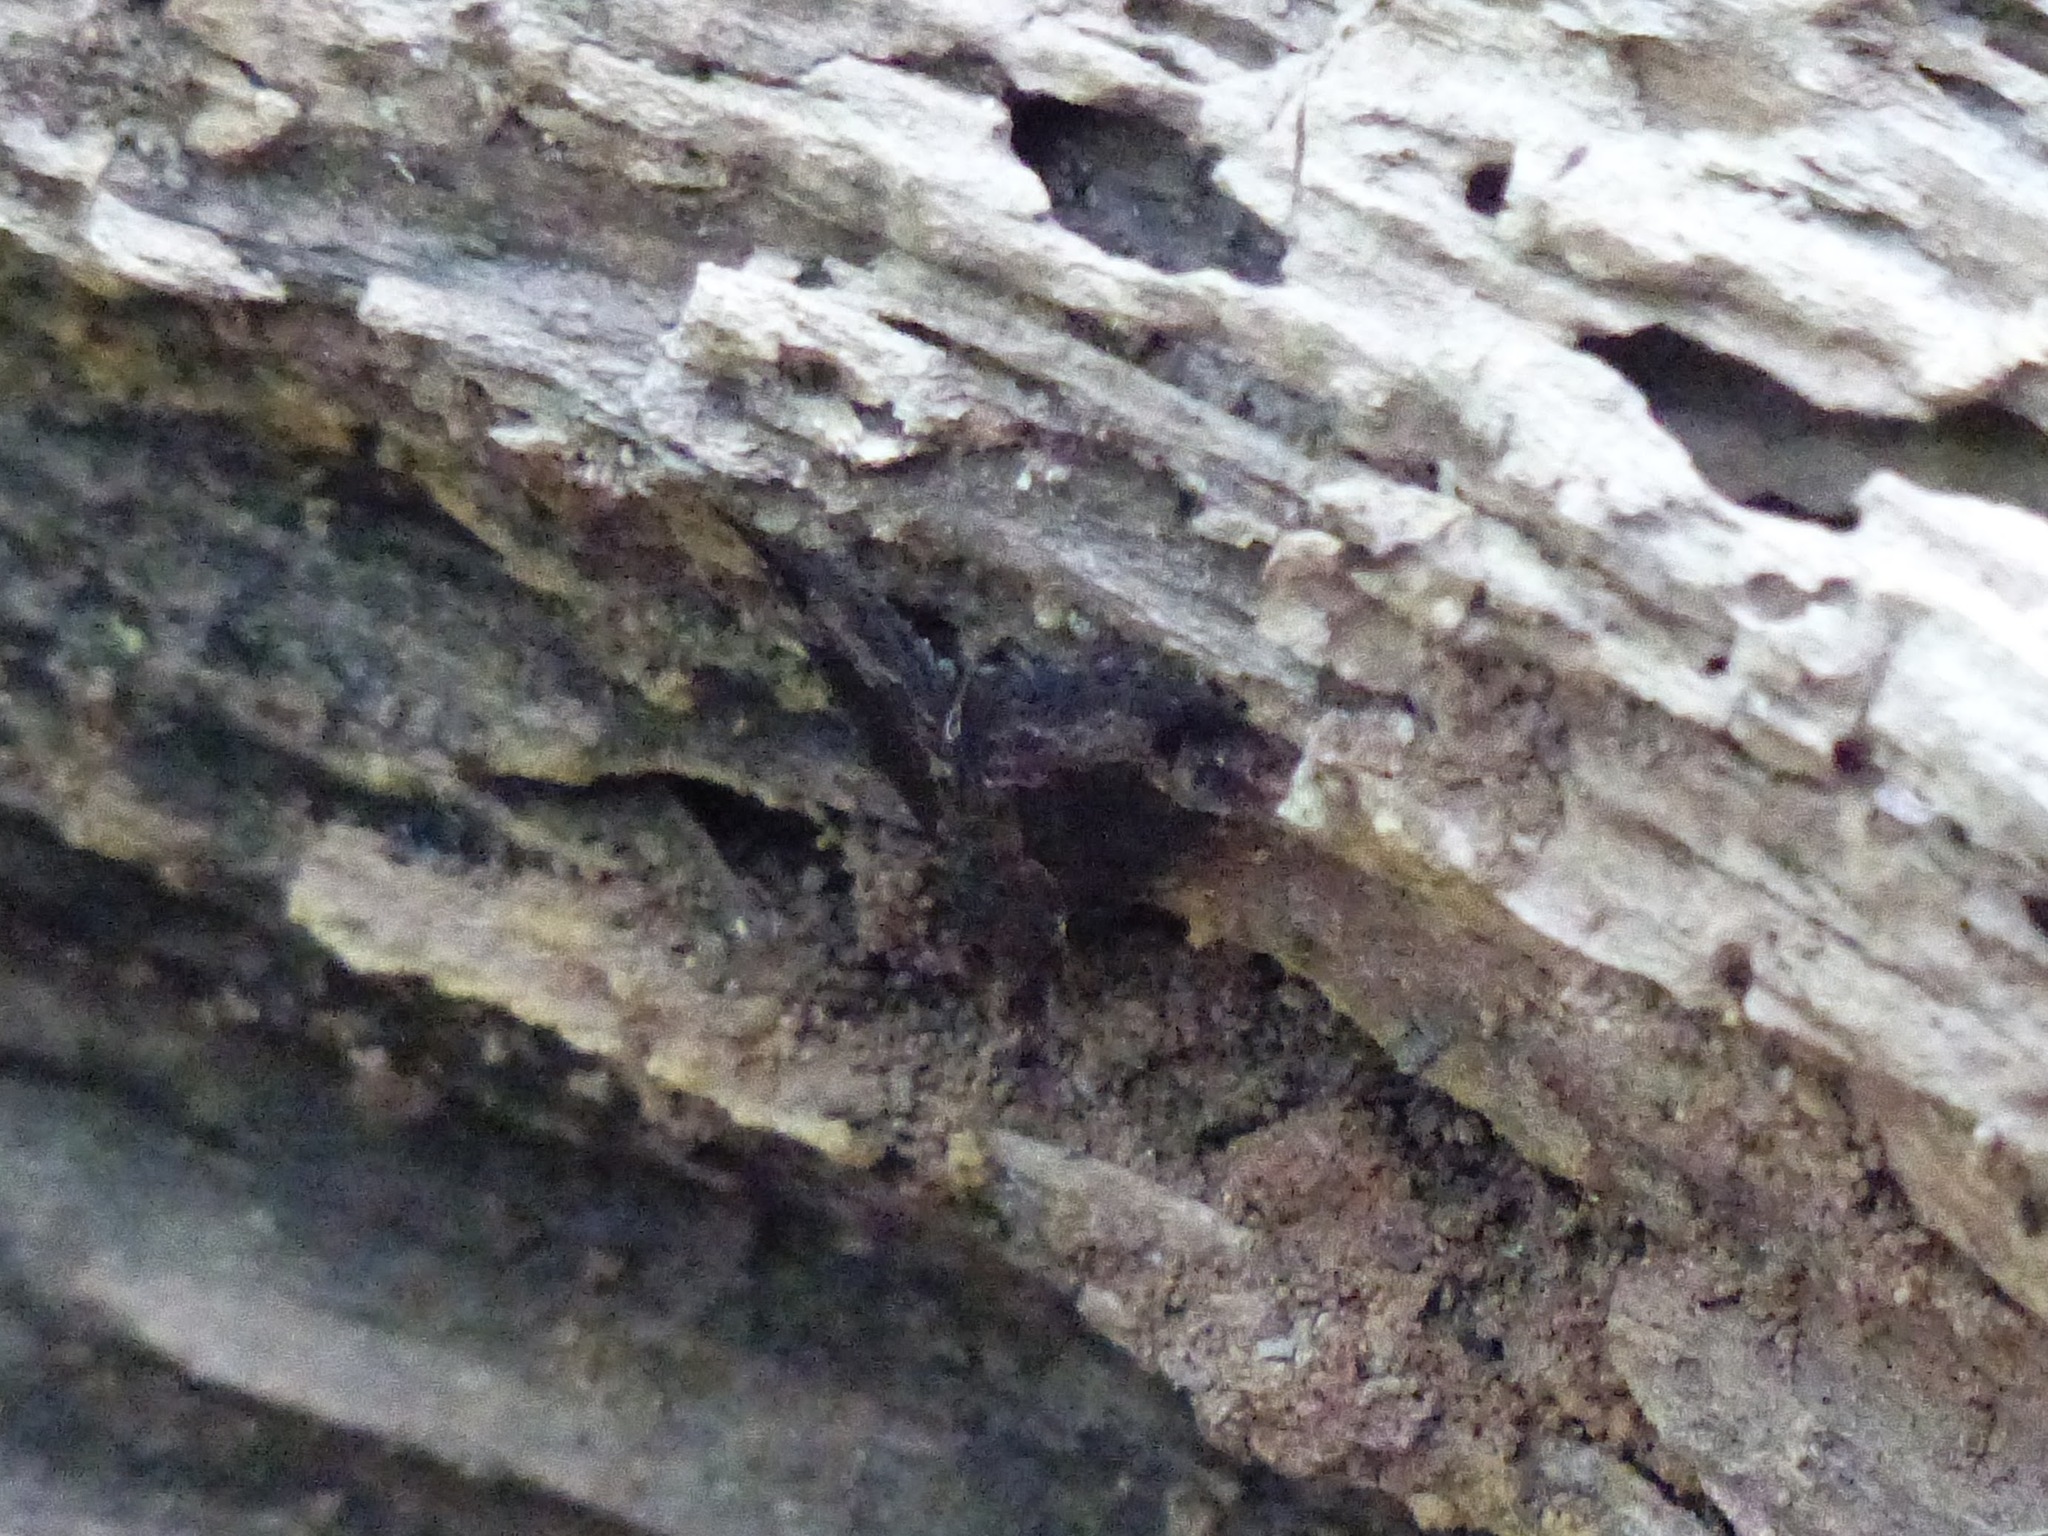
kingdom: Animalia
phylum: Arthropoda
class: Insecta
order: Lepidoptera
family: Erebidae
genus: Hypena
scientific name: Hypena baltimoralis
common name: Baltimore snout
